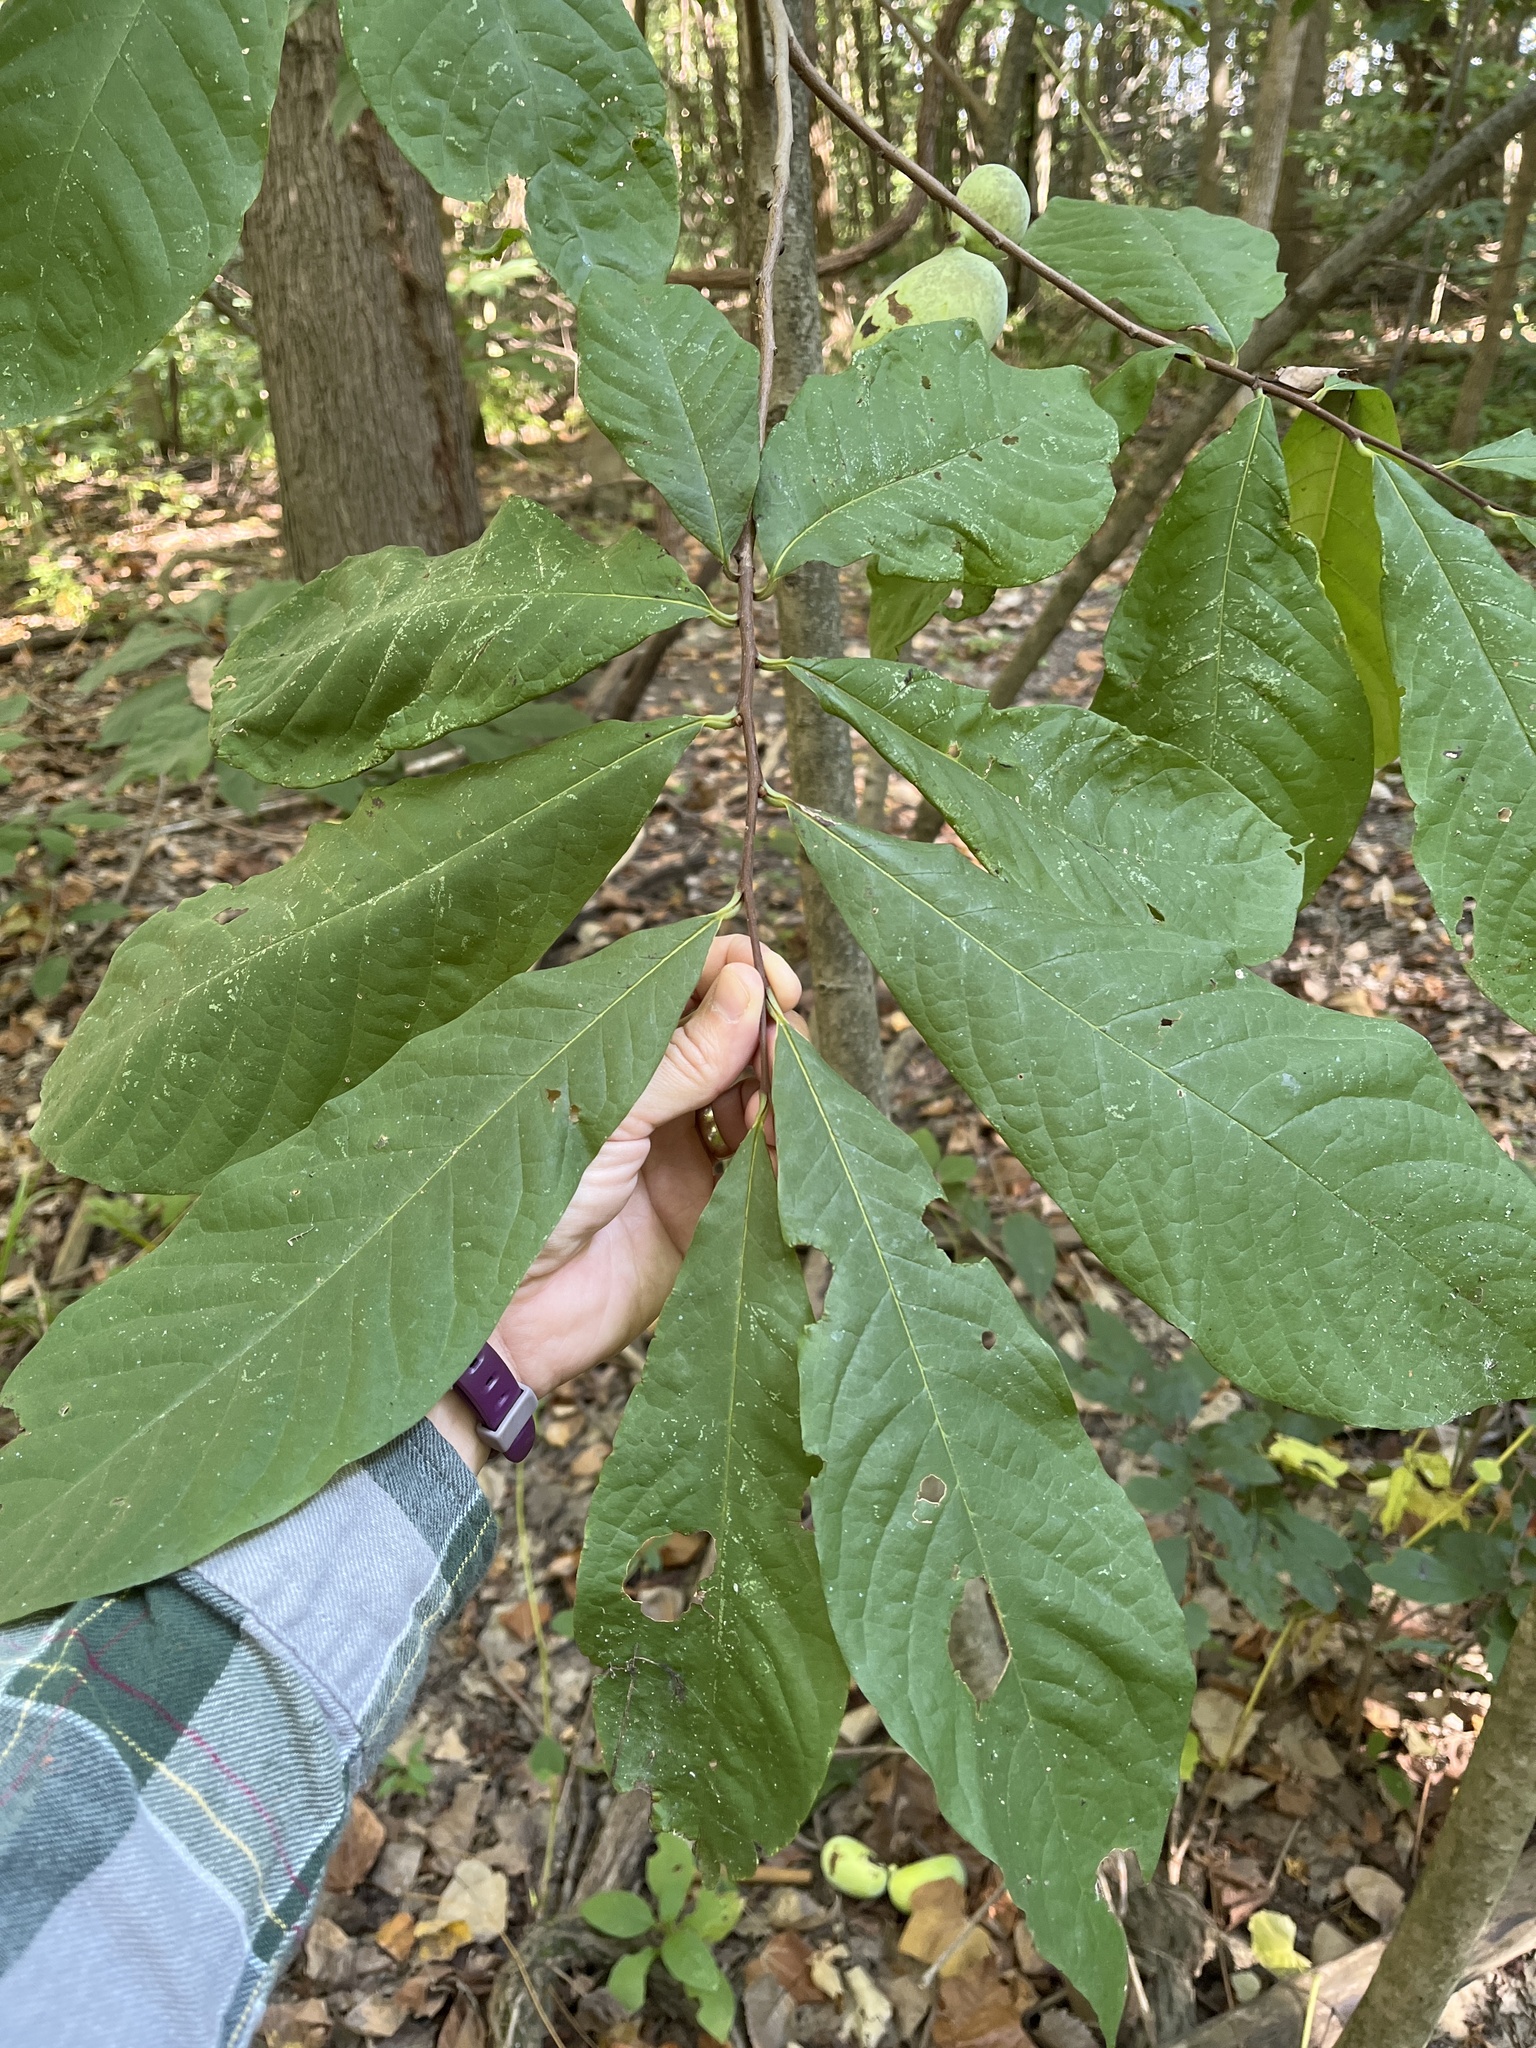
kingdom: Plantae
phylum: Tracheophyta
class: Magnoliopsida
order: Magnoliales
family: Annonaceae
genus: Asimina
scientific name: Asimina triloba
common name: Dog-banana
